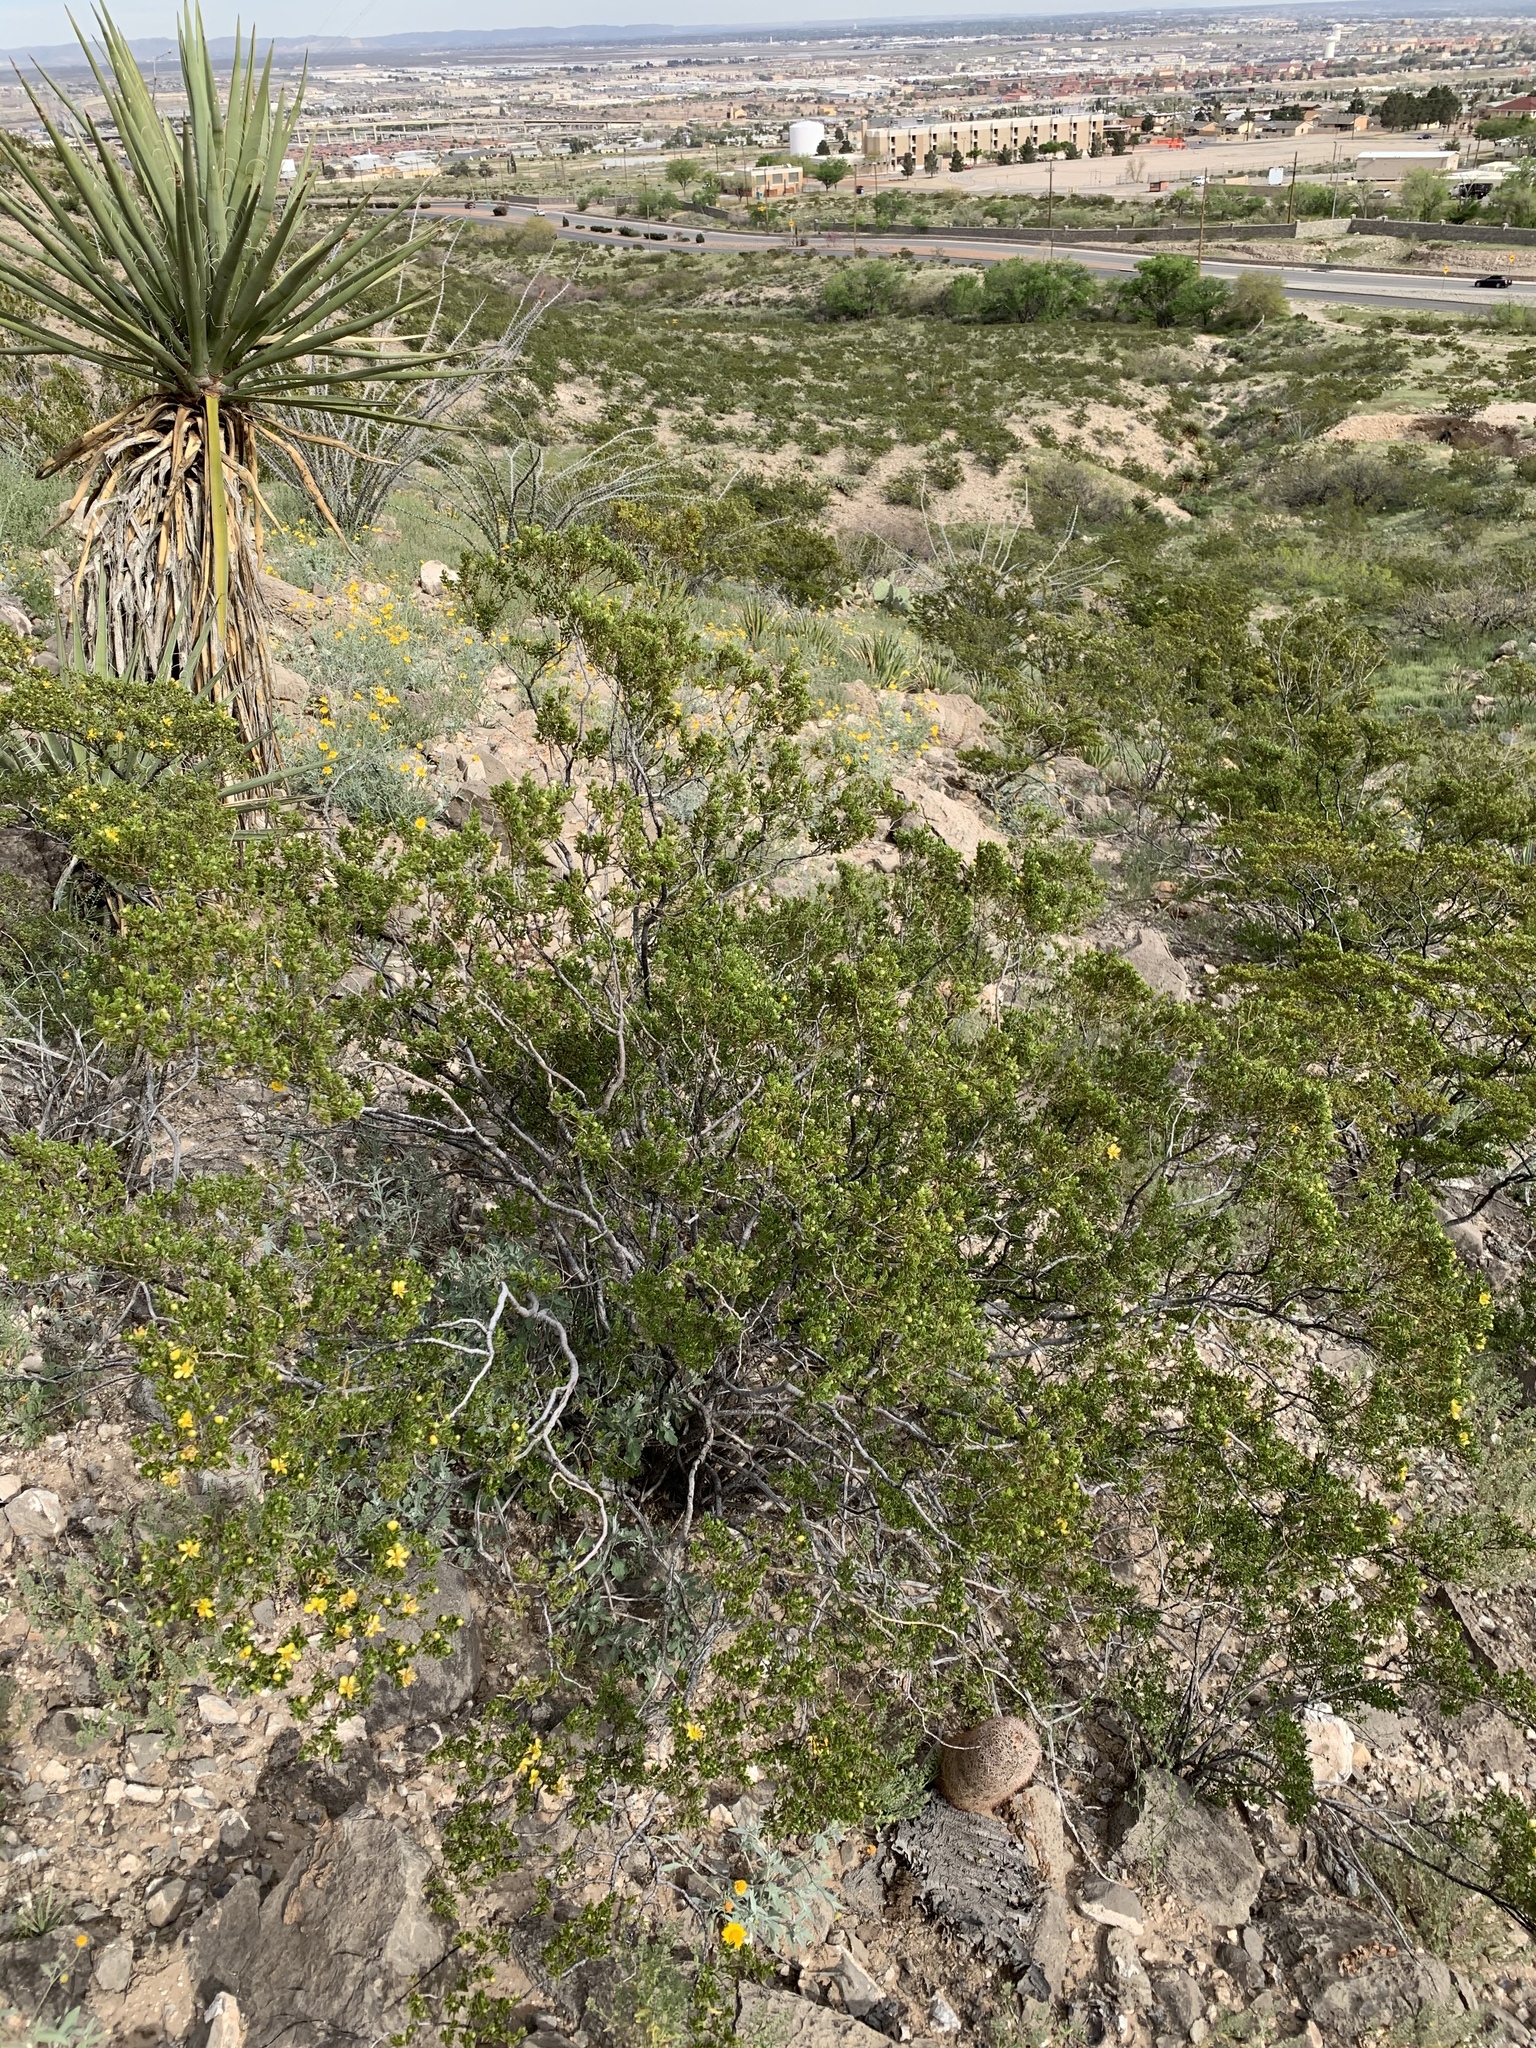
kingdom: Plantae
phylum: Tracheophyta
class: Magnoliopsida
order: Zygophyllales
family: Zygophyllaceae
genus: Larrea
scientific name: Larrea tridentata
